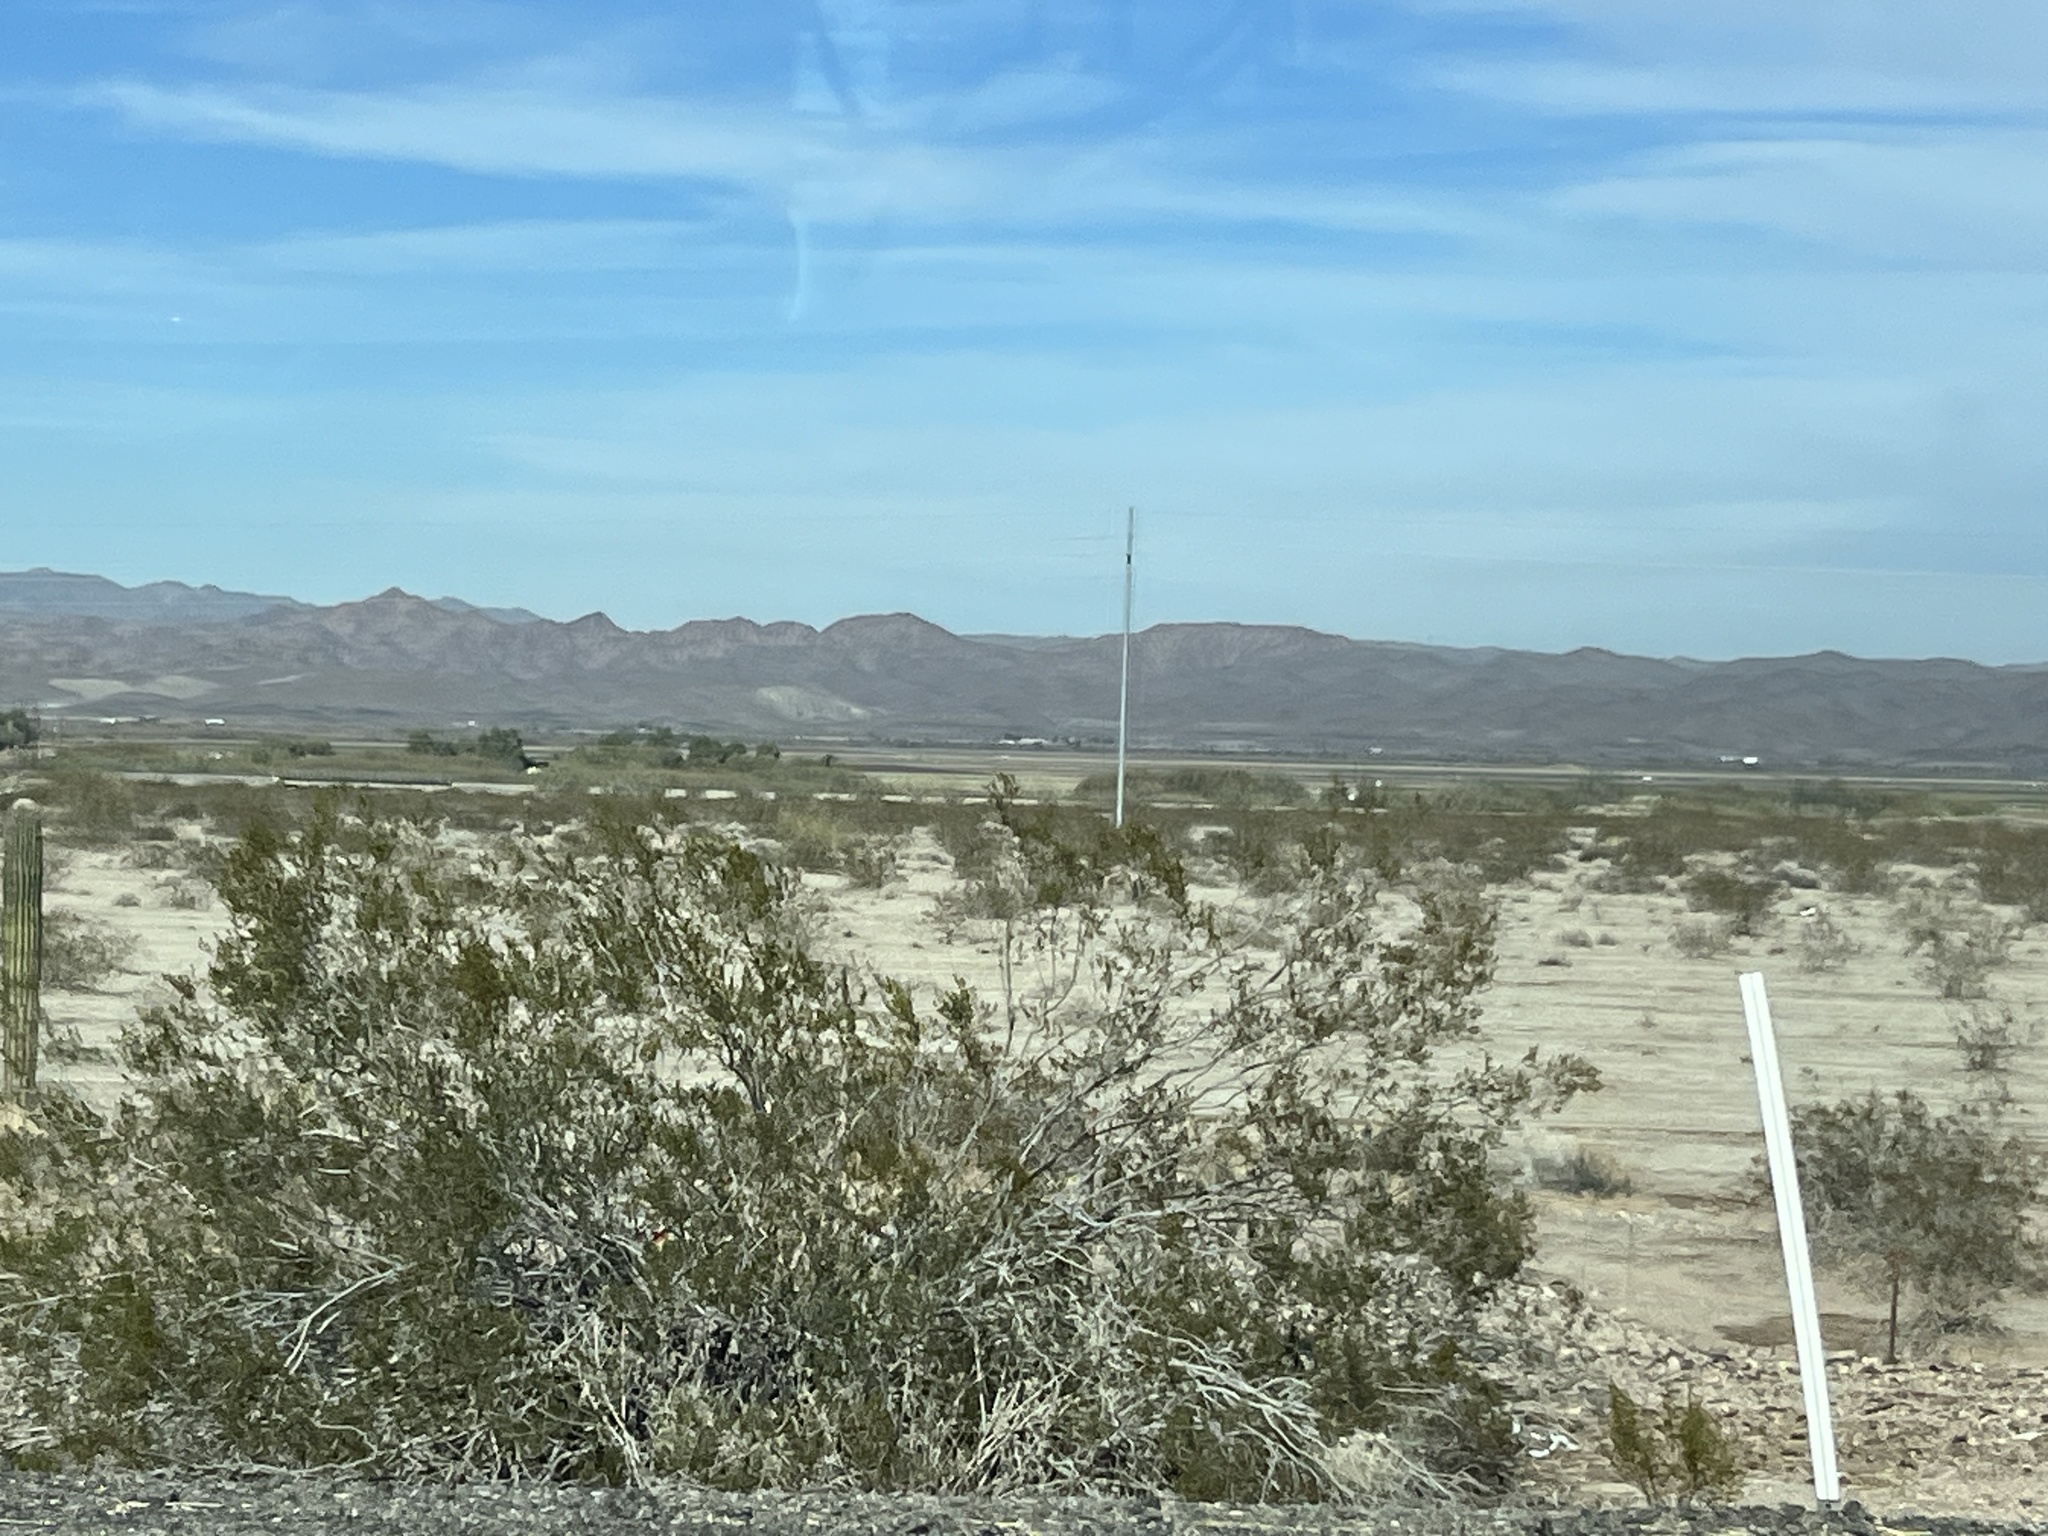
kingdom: Plantae
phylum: Tracheophyta
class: Magnoliopsida
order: Zygophyllales
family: Zygophyllaceae
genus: Larrea
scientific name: Larrea tridentata
